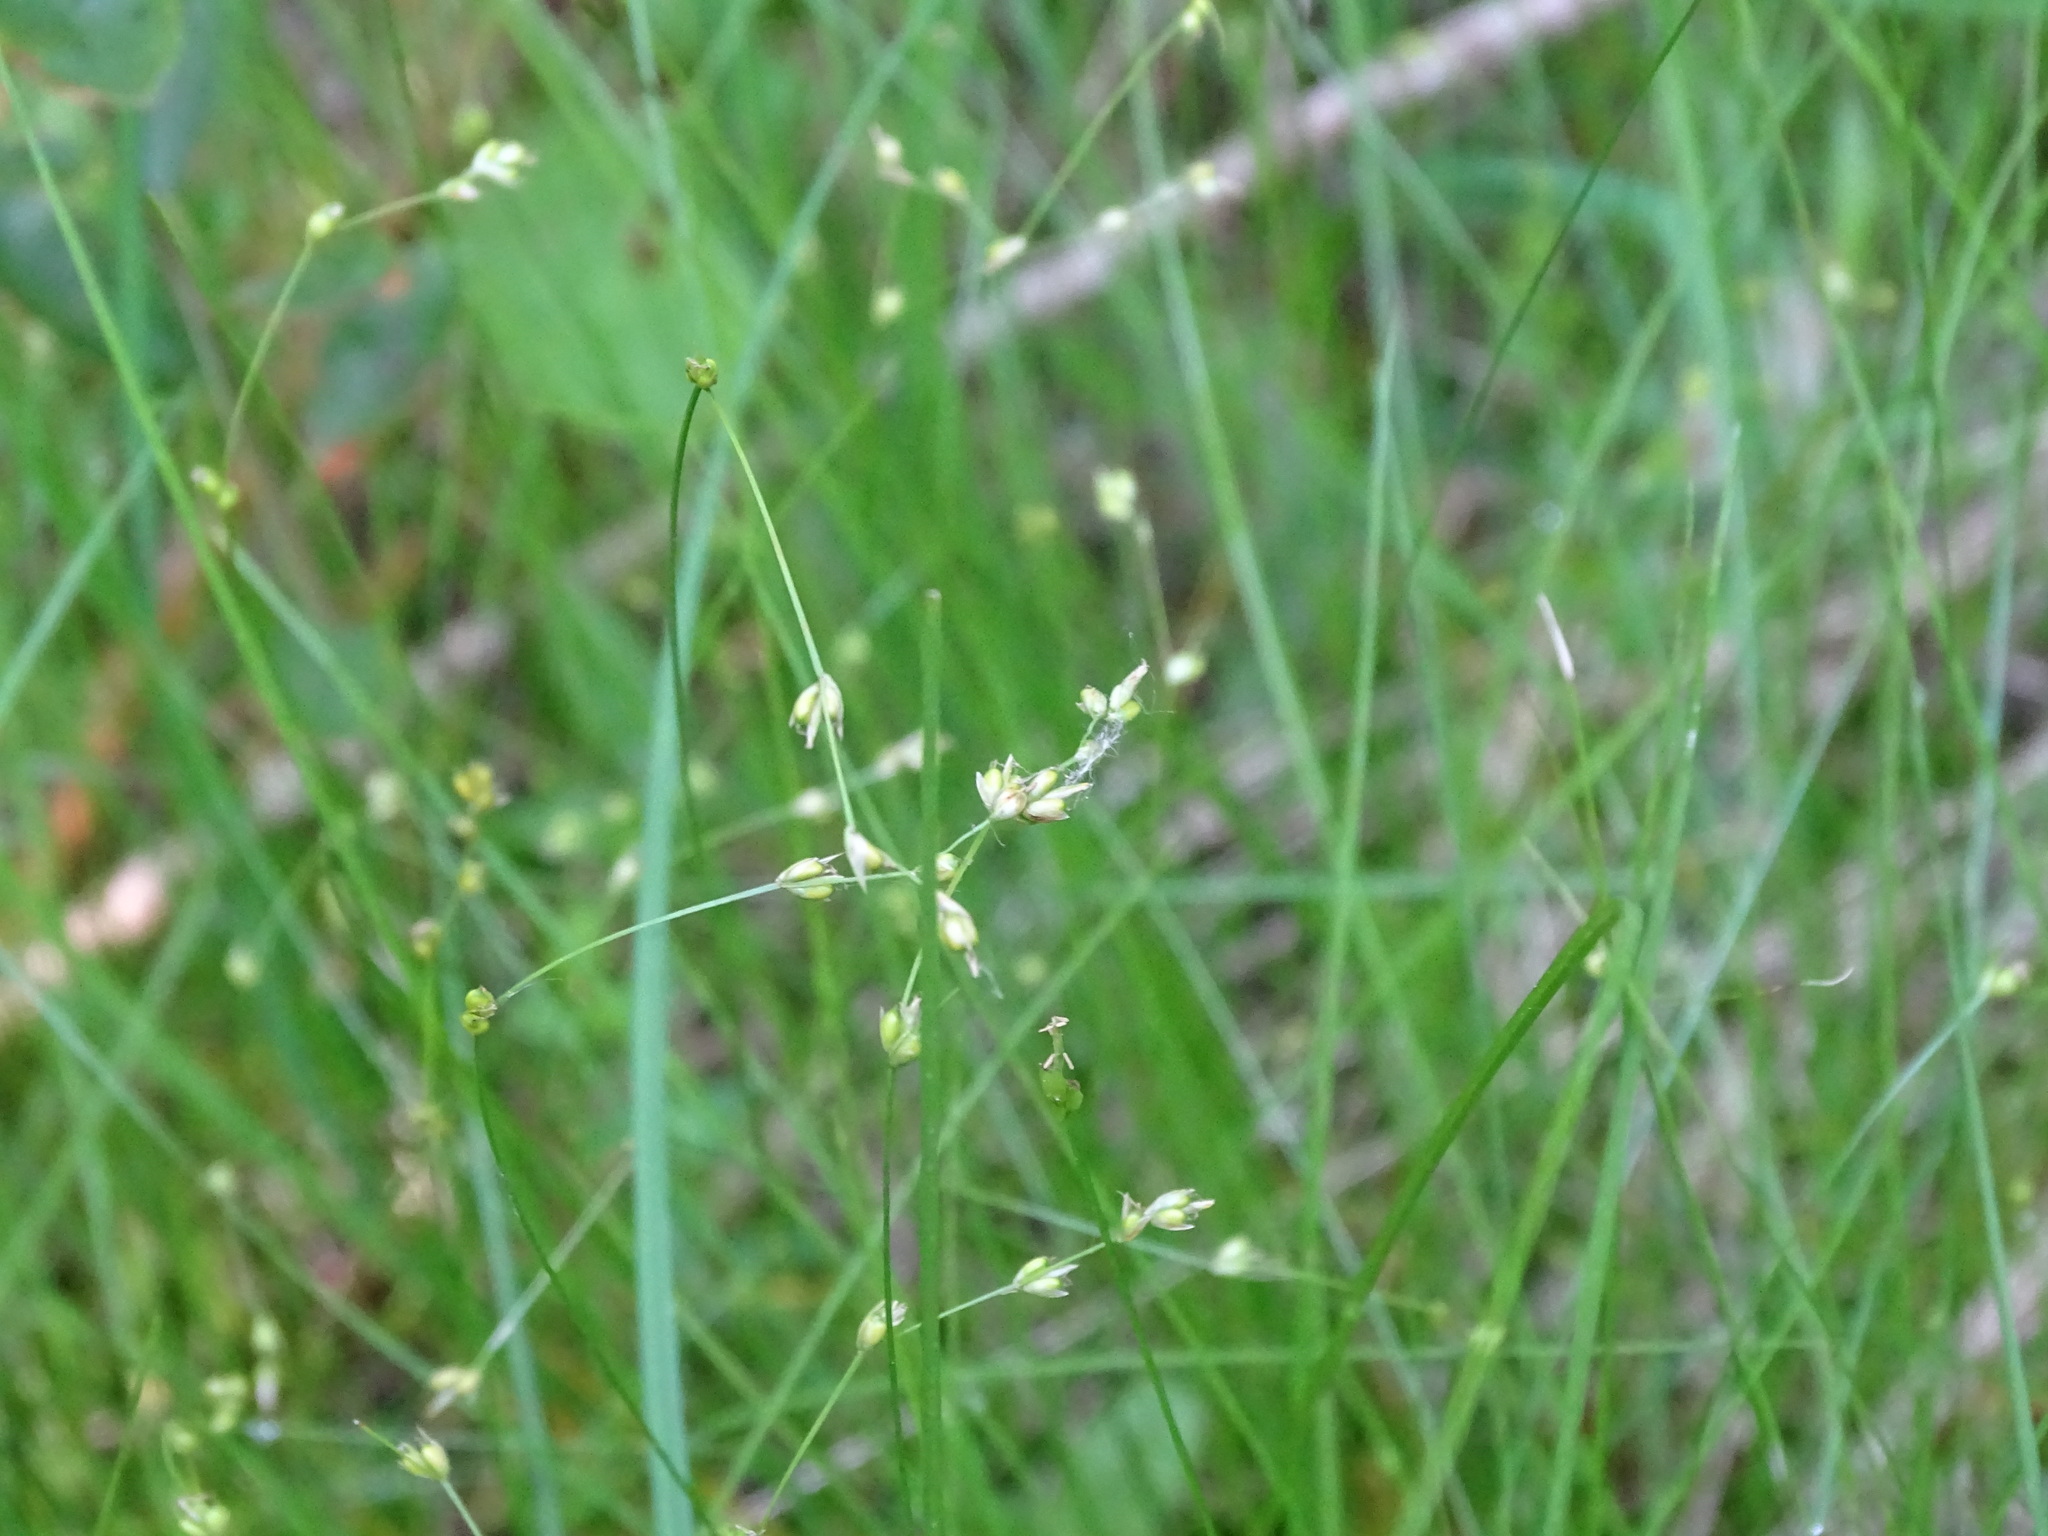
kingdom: Plantae
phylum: Tracheophyta
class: Liliopsida
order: Poales
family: Cyperaceae
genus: Carex
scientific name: Carex disperma
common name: Short-leaved sedge
